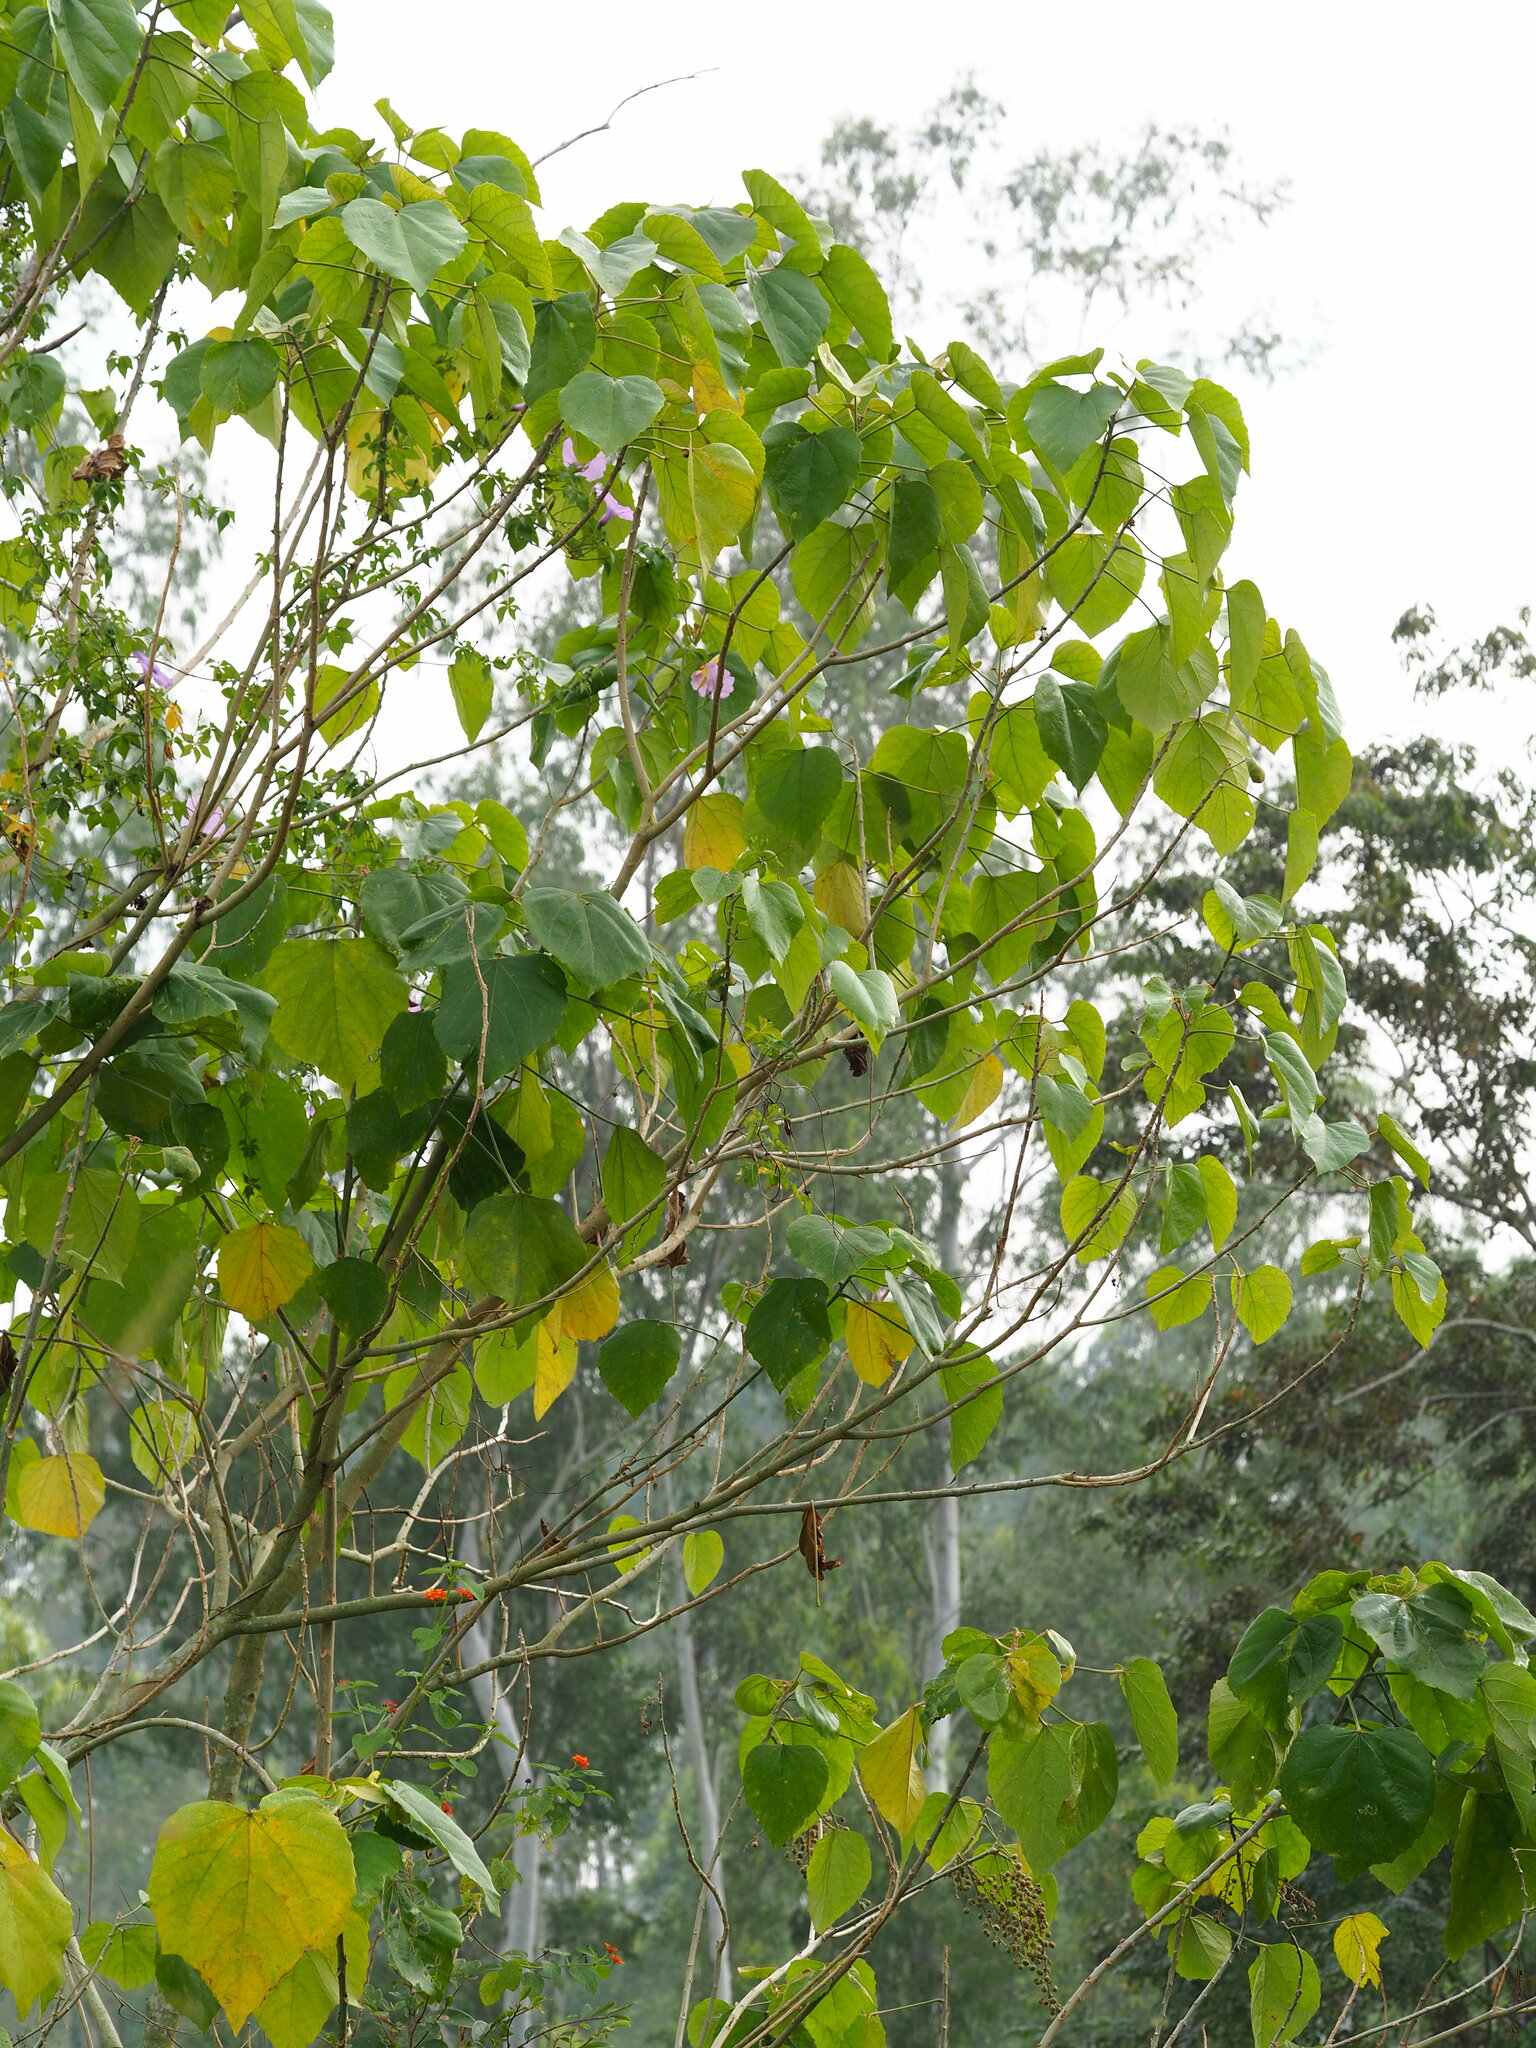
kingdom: Plantae
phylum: Tracheophyta
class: Magnoliopsida
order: Malpighiales
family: Euphorbiaceae
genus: Macaranga
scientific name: Macaranga tanarius
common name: Parasol leaf tree
